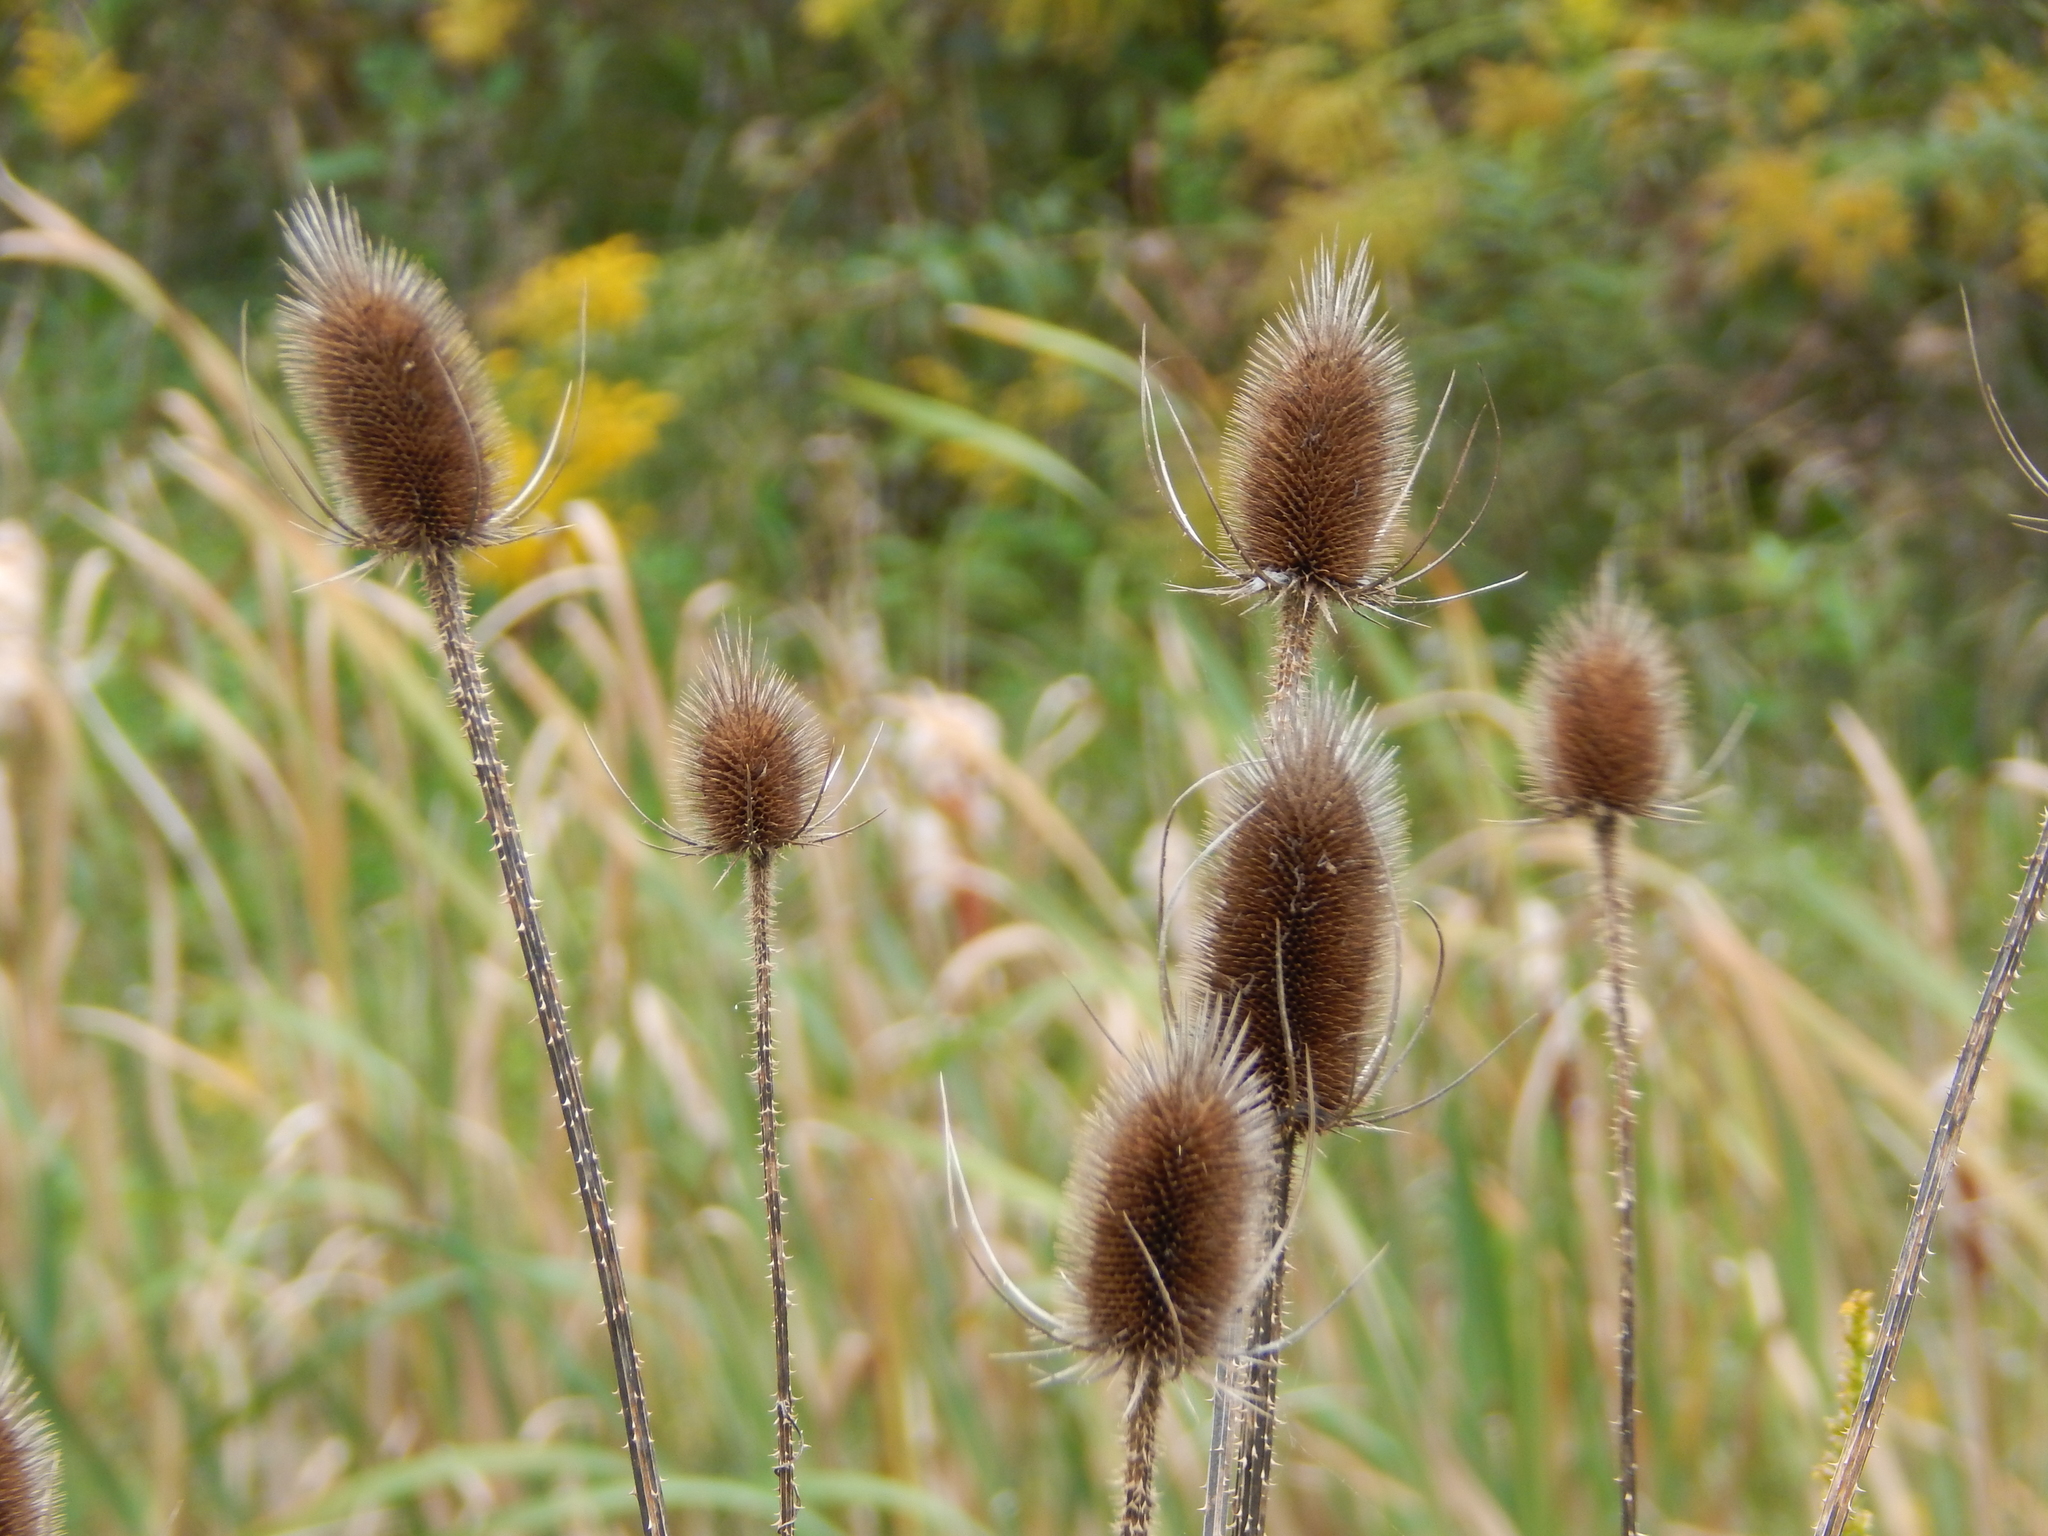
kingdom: Plantae
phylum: Tracheophyta
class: Magnoliopsida
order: Dipsacales
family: Caprifoliaceae
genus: Dipsacus
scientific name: Dipsacus fullonum
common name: Teasel
